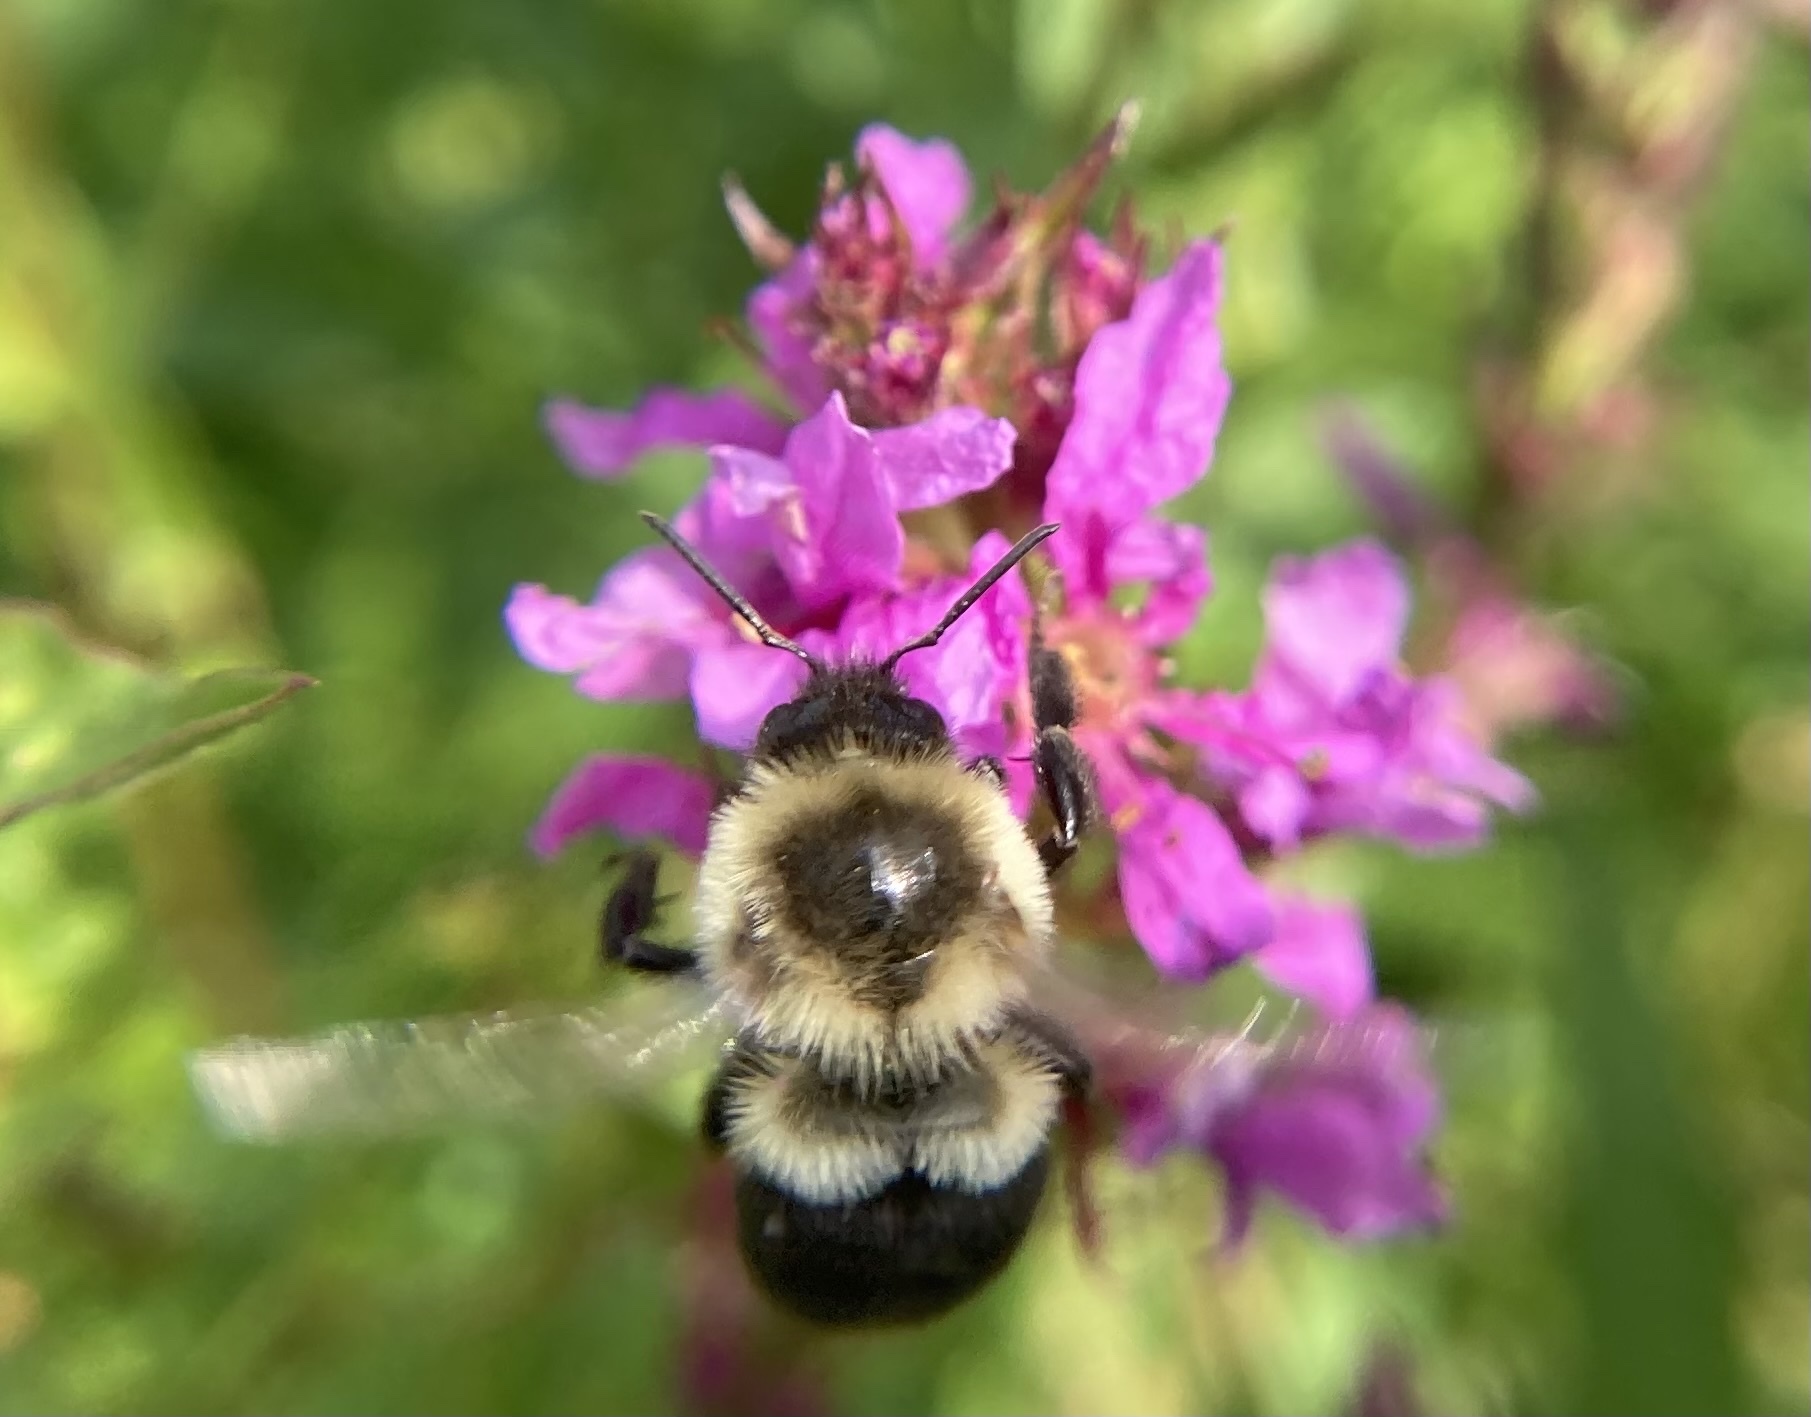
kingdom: Animalia
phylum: Arthropoda
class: Insecta
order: Hymenoptera
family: Apidae
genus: Bombus
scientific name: Bombus impatiens
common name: Common eastern bumble bee
